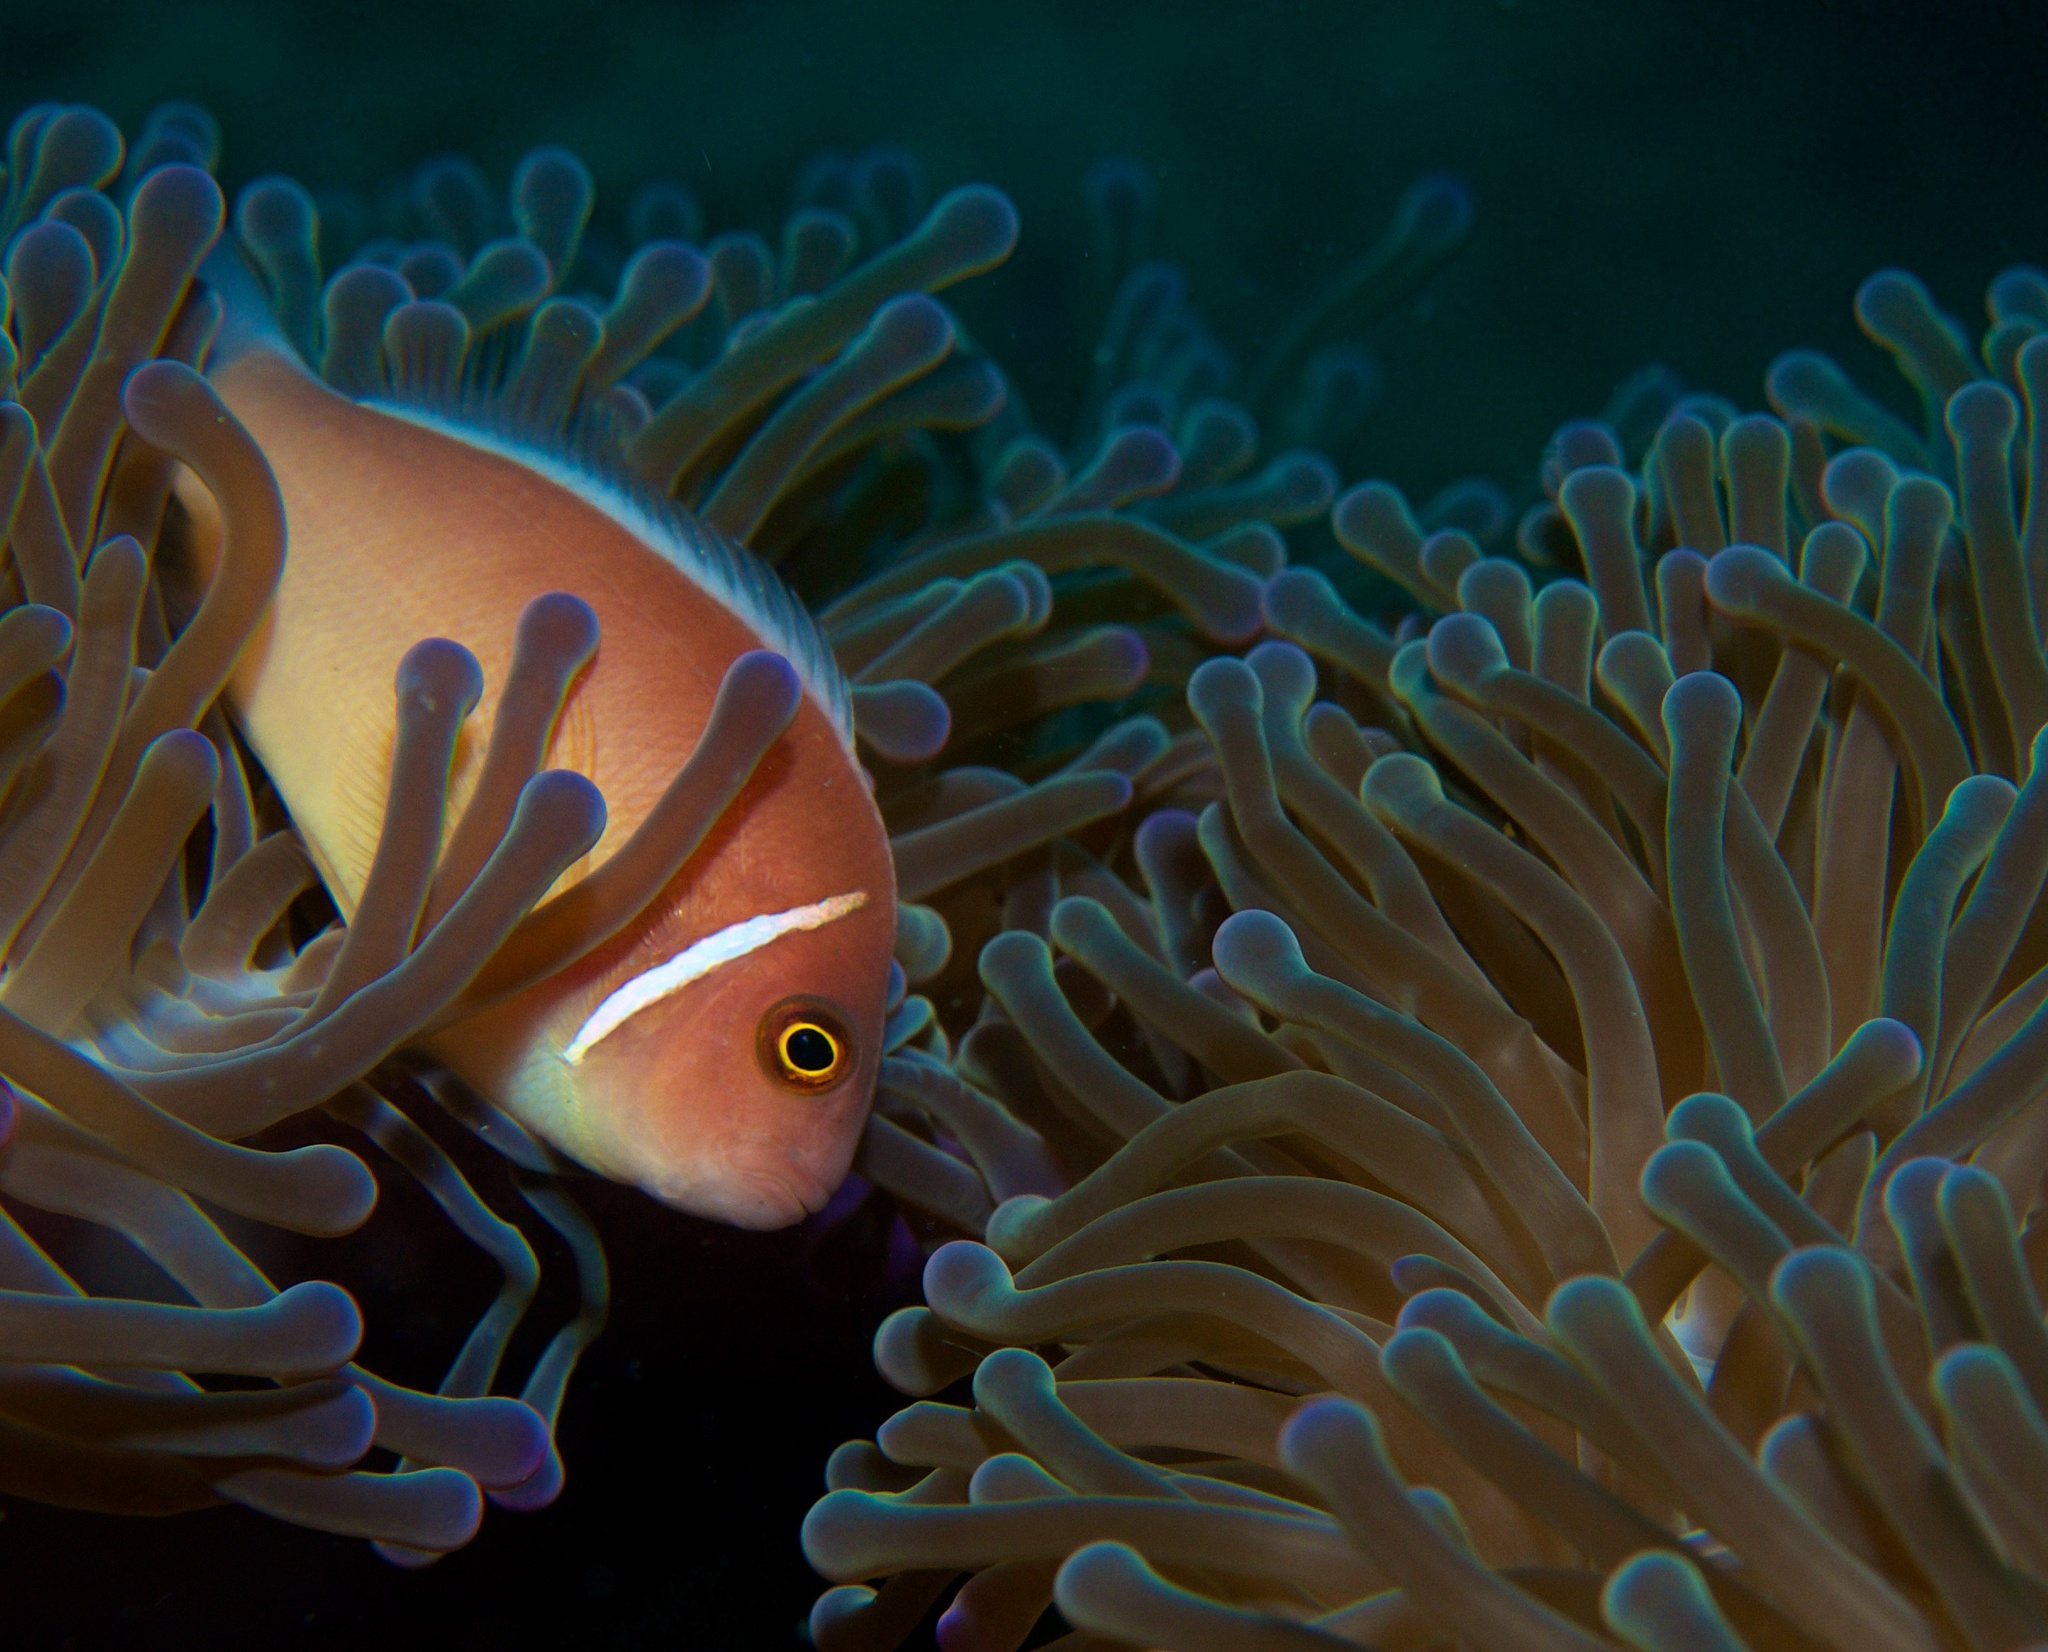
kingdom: Animalia
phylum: Chordata
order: Perciformes
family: Pomacentridae
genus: Amphiprion
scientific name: Amphiprion perideraion
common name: Pink anemonefish
